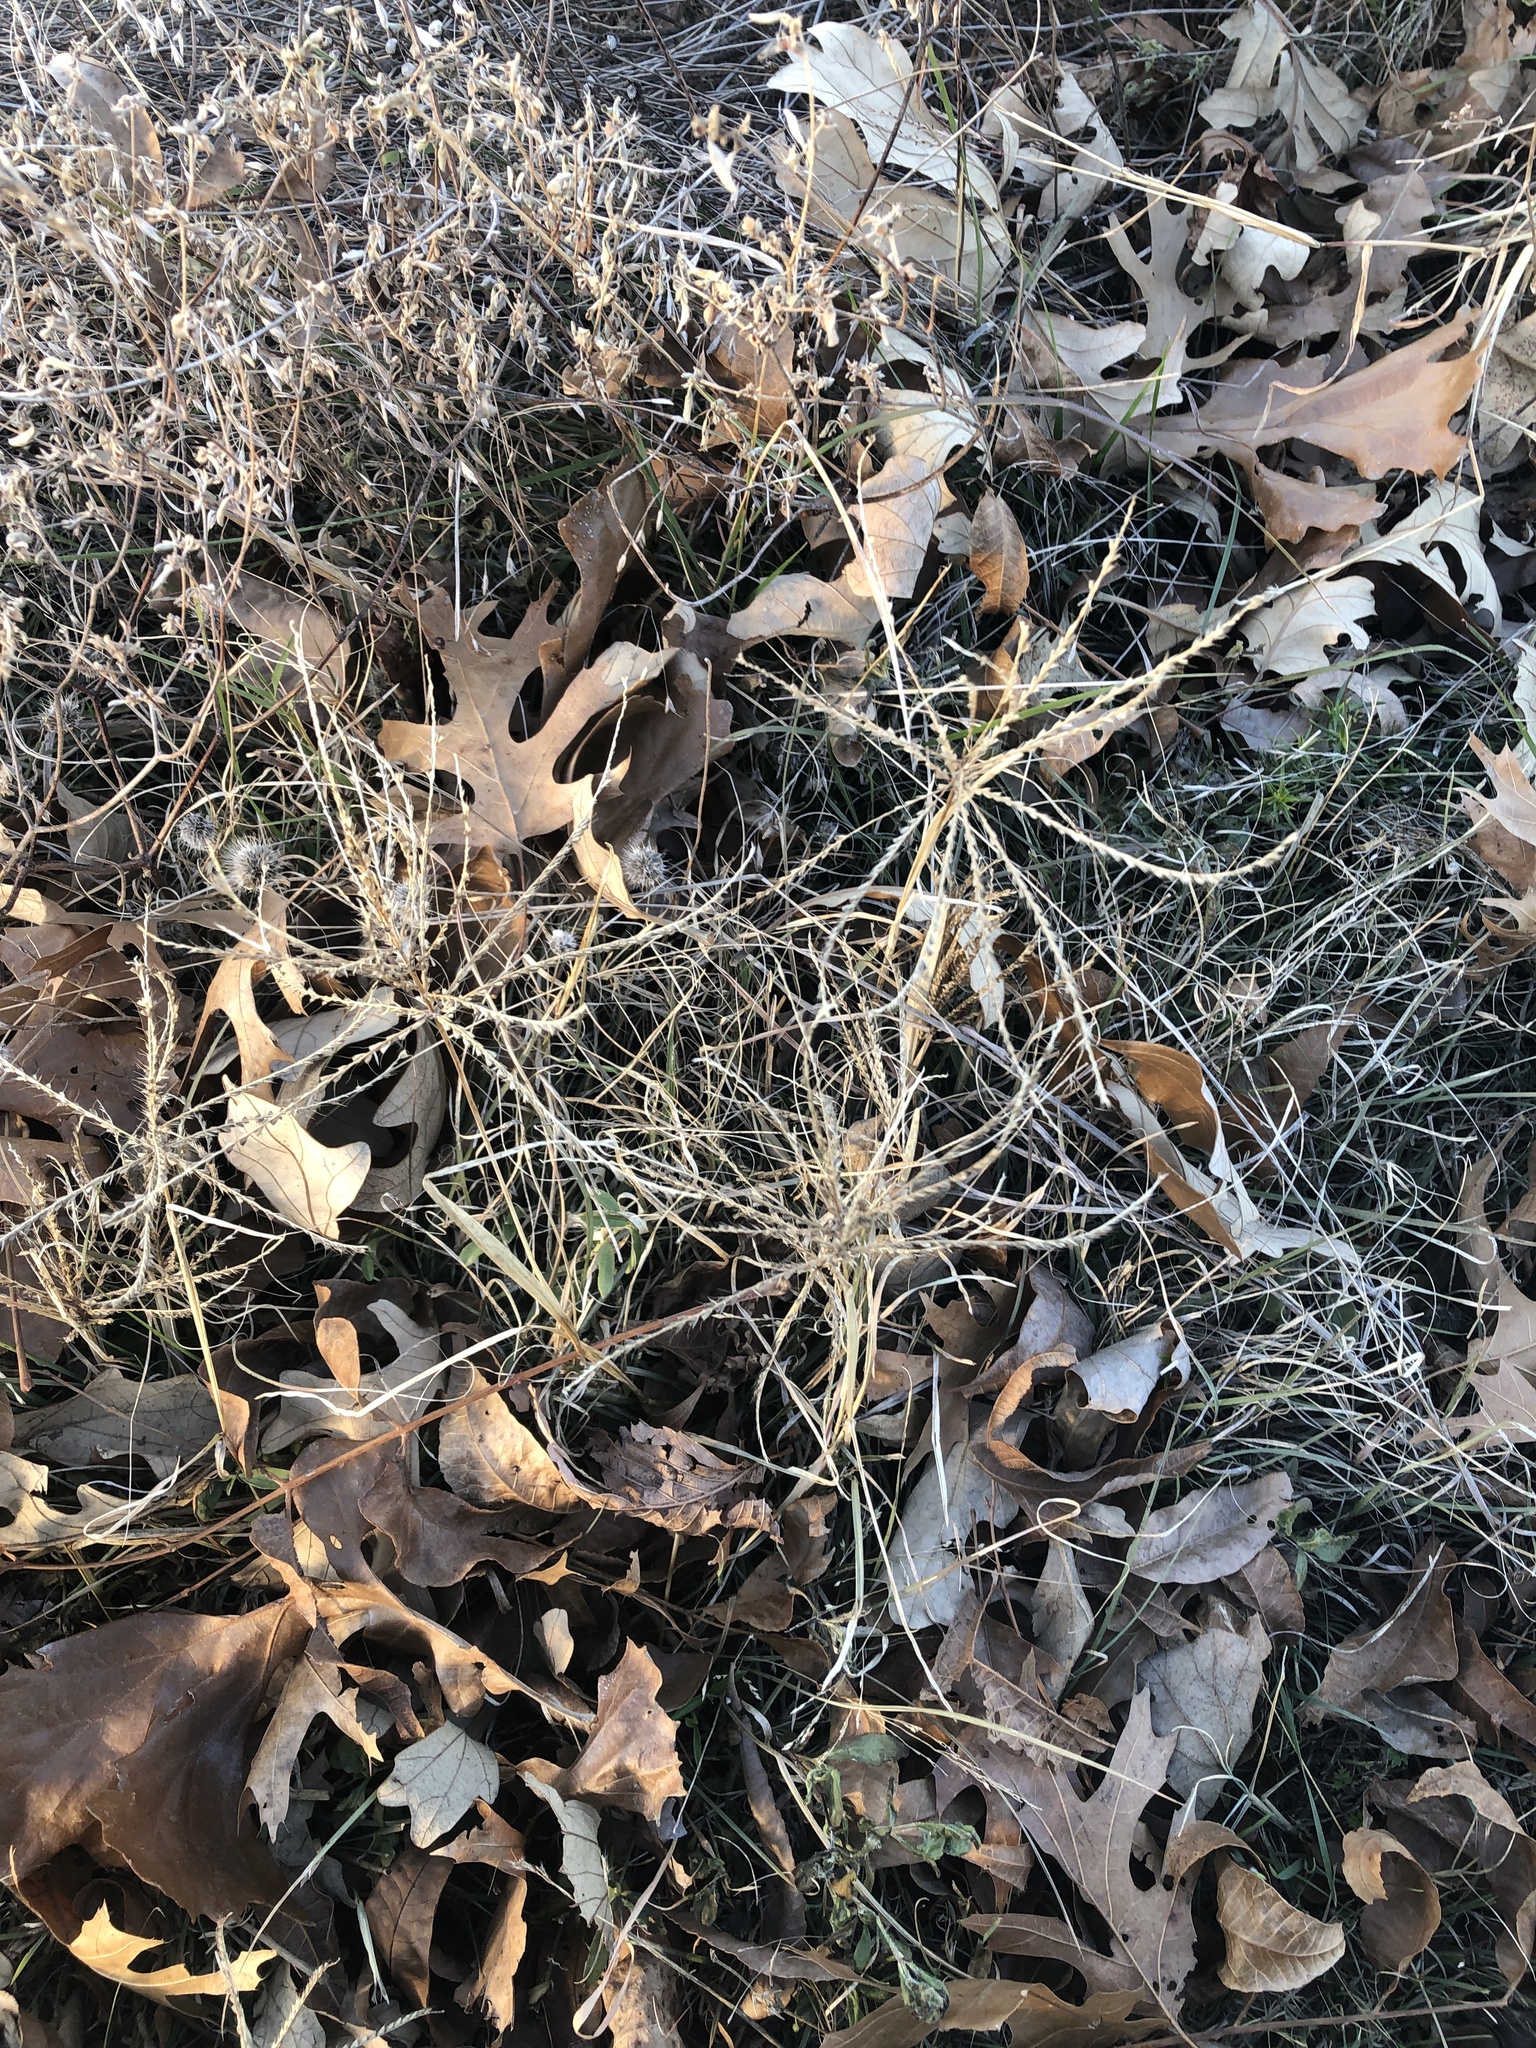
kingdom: Plantae
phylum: Tracheophyta
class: Liliopsida
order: Poales
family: Poaceae
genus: Chloris
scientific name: Chloris verticillata
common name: Tumble windmill grass
